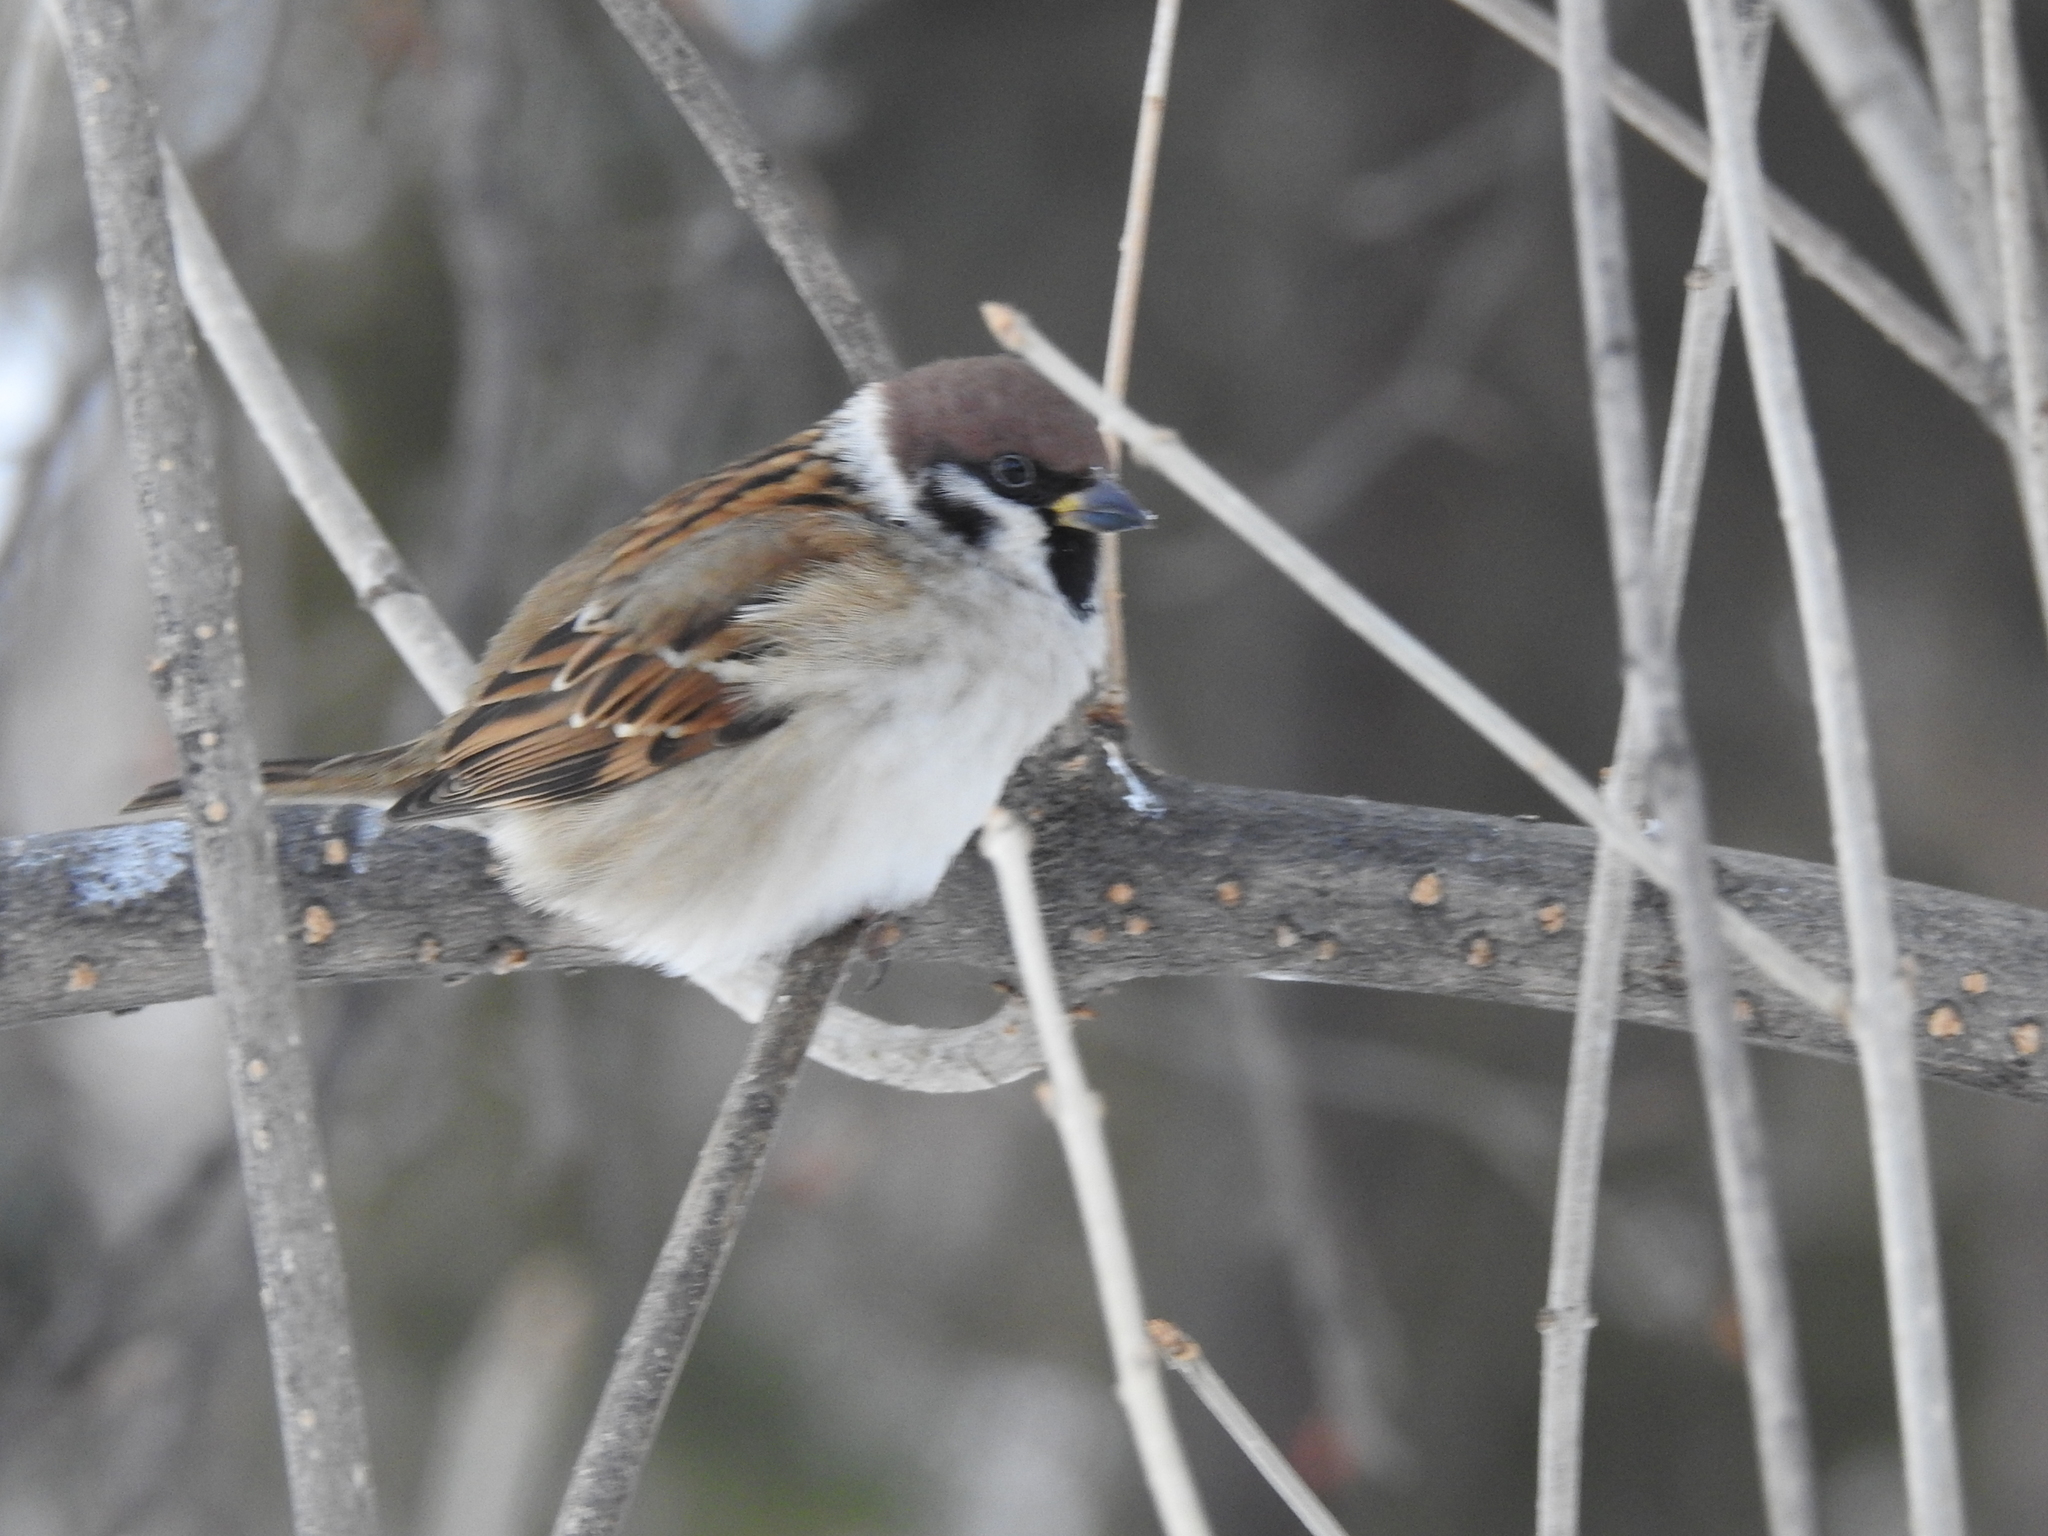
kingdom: Animalia
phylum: Chordata
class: Aves
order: Passeriformes
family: Passeridae
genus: Passer
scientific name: Passer montanus
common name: Eurasian tree sparrow
